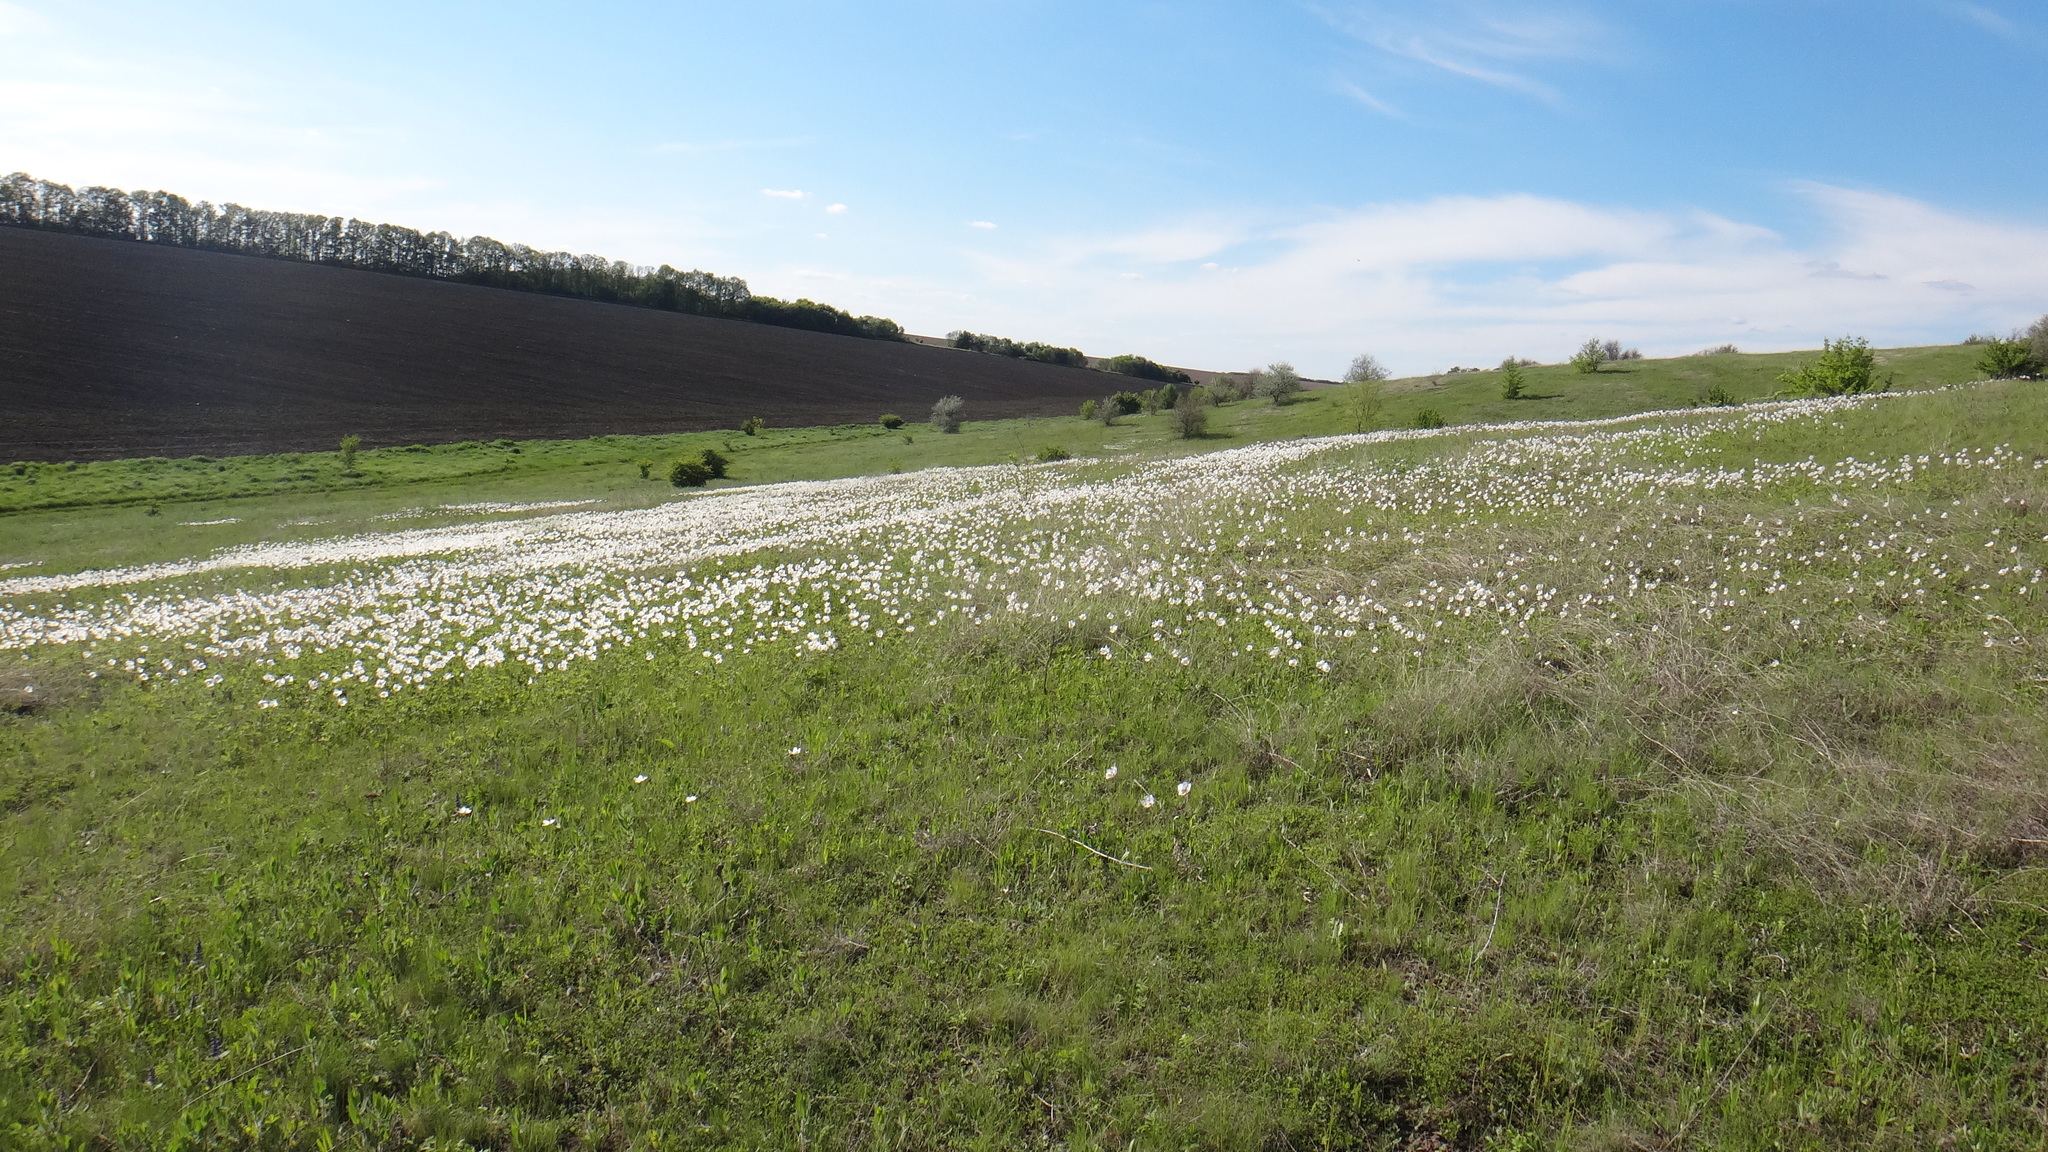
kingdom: Plantae
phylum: Tracheophyta
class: Magnoliopsida
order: Ranunculales
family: Ranunculaceae
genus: Anemone
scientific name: Anemone sylvestris
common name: Snowdrop anemone
